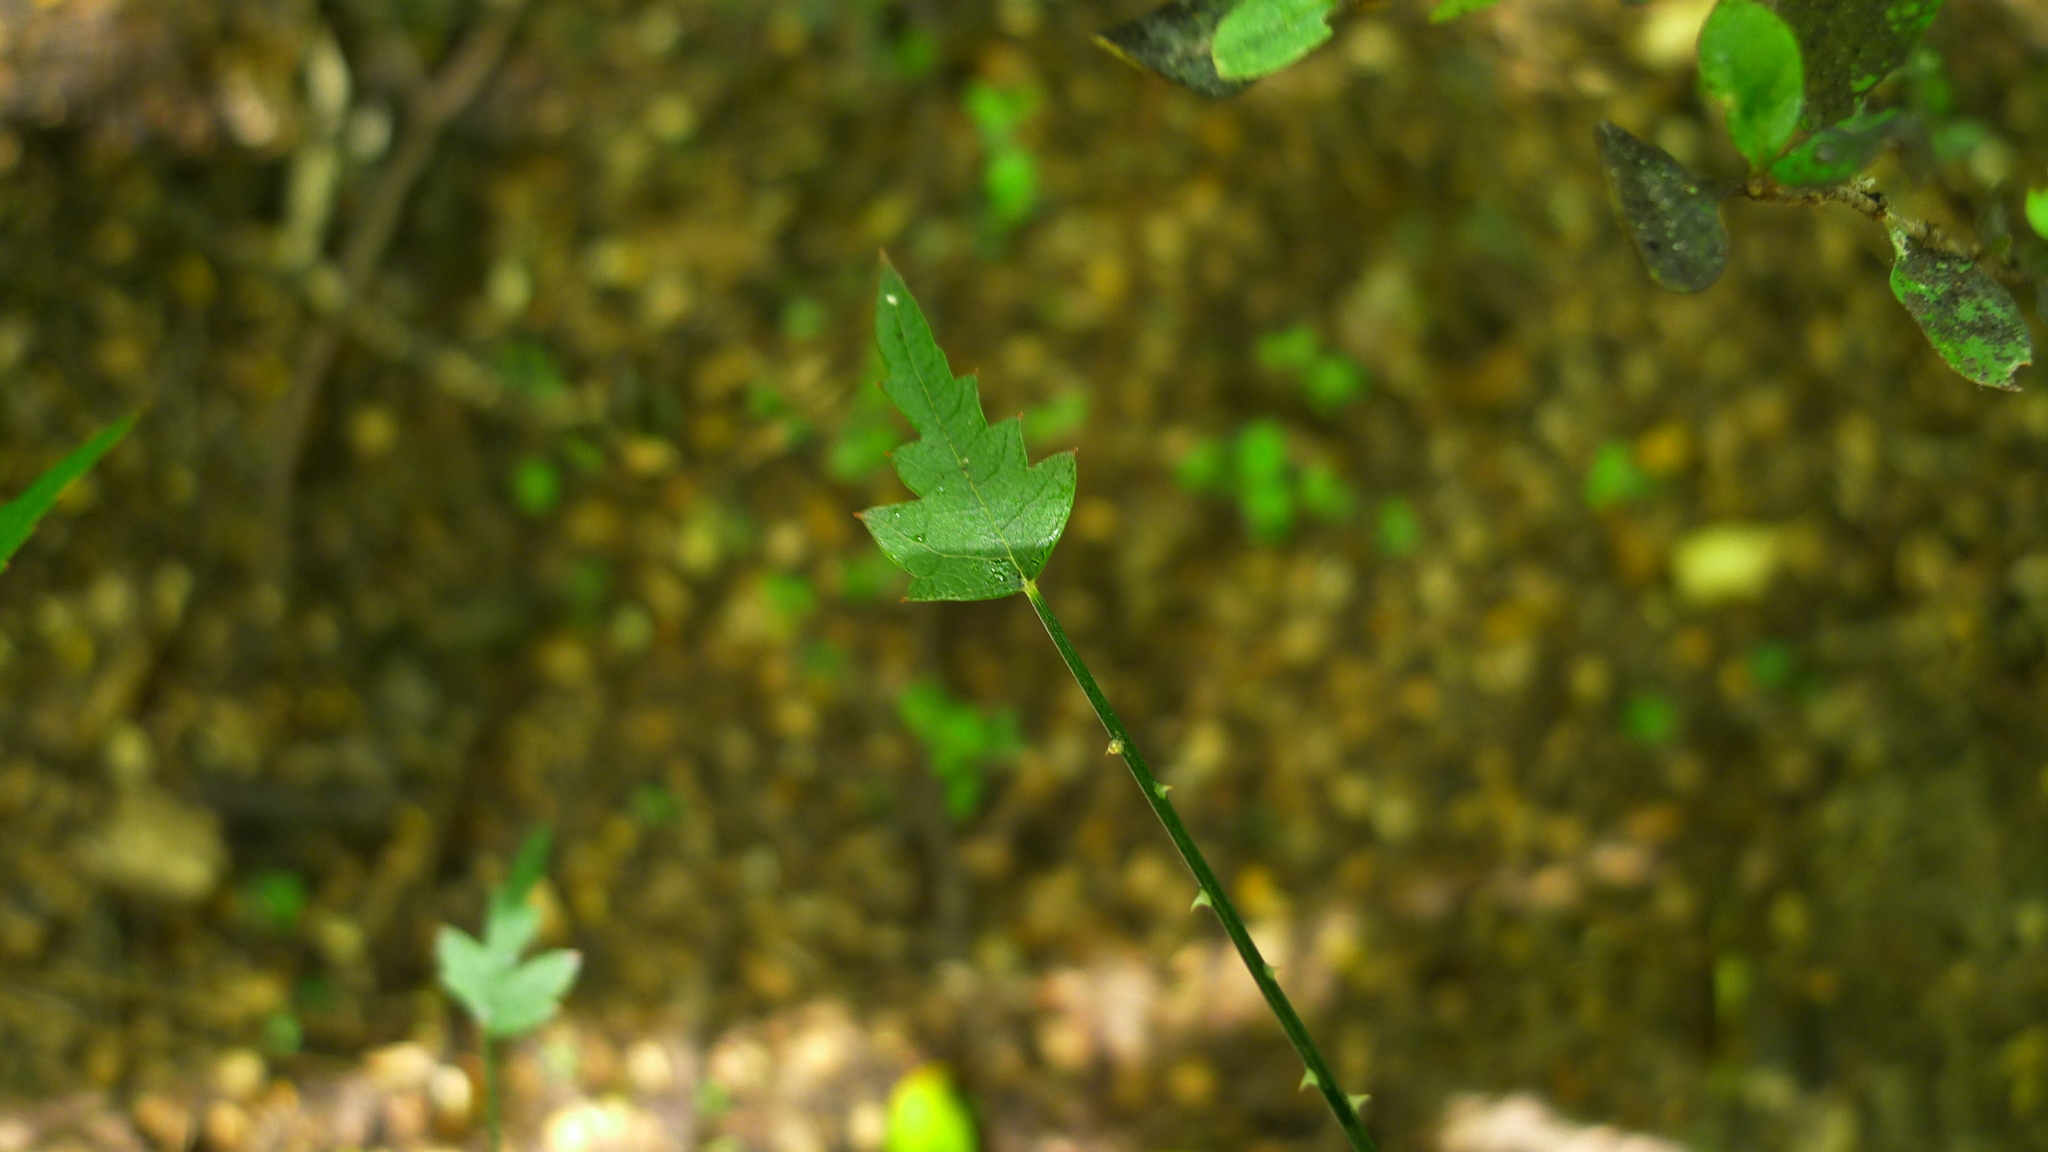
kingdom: Plantae
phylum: Tracheophyta
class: Magnoliopsida
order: Rosales
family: Rosaceae
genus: Rubus
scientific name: Rubus squarrosus
